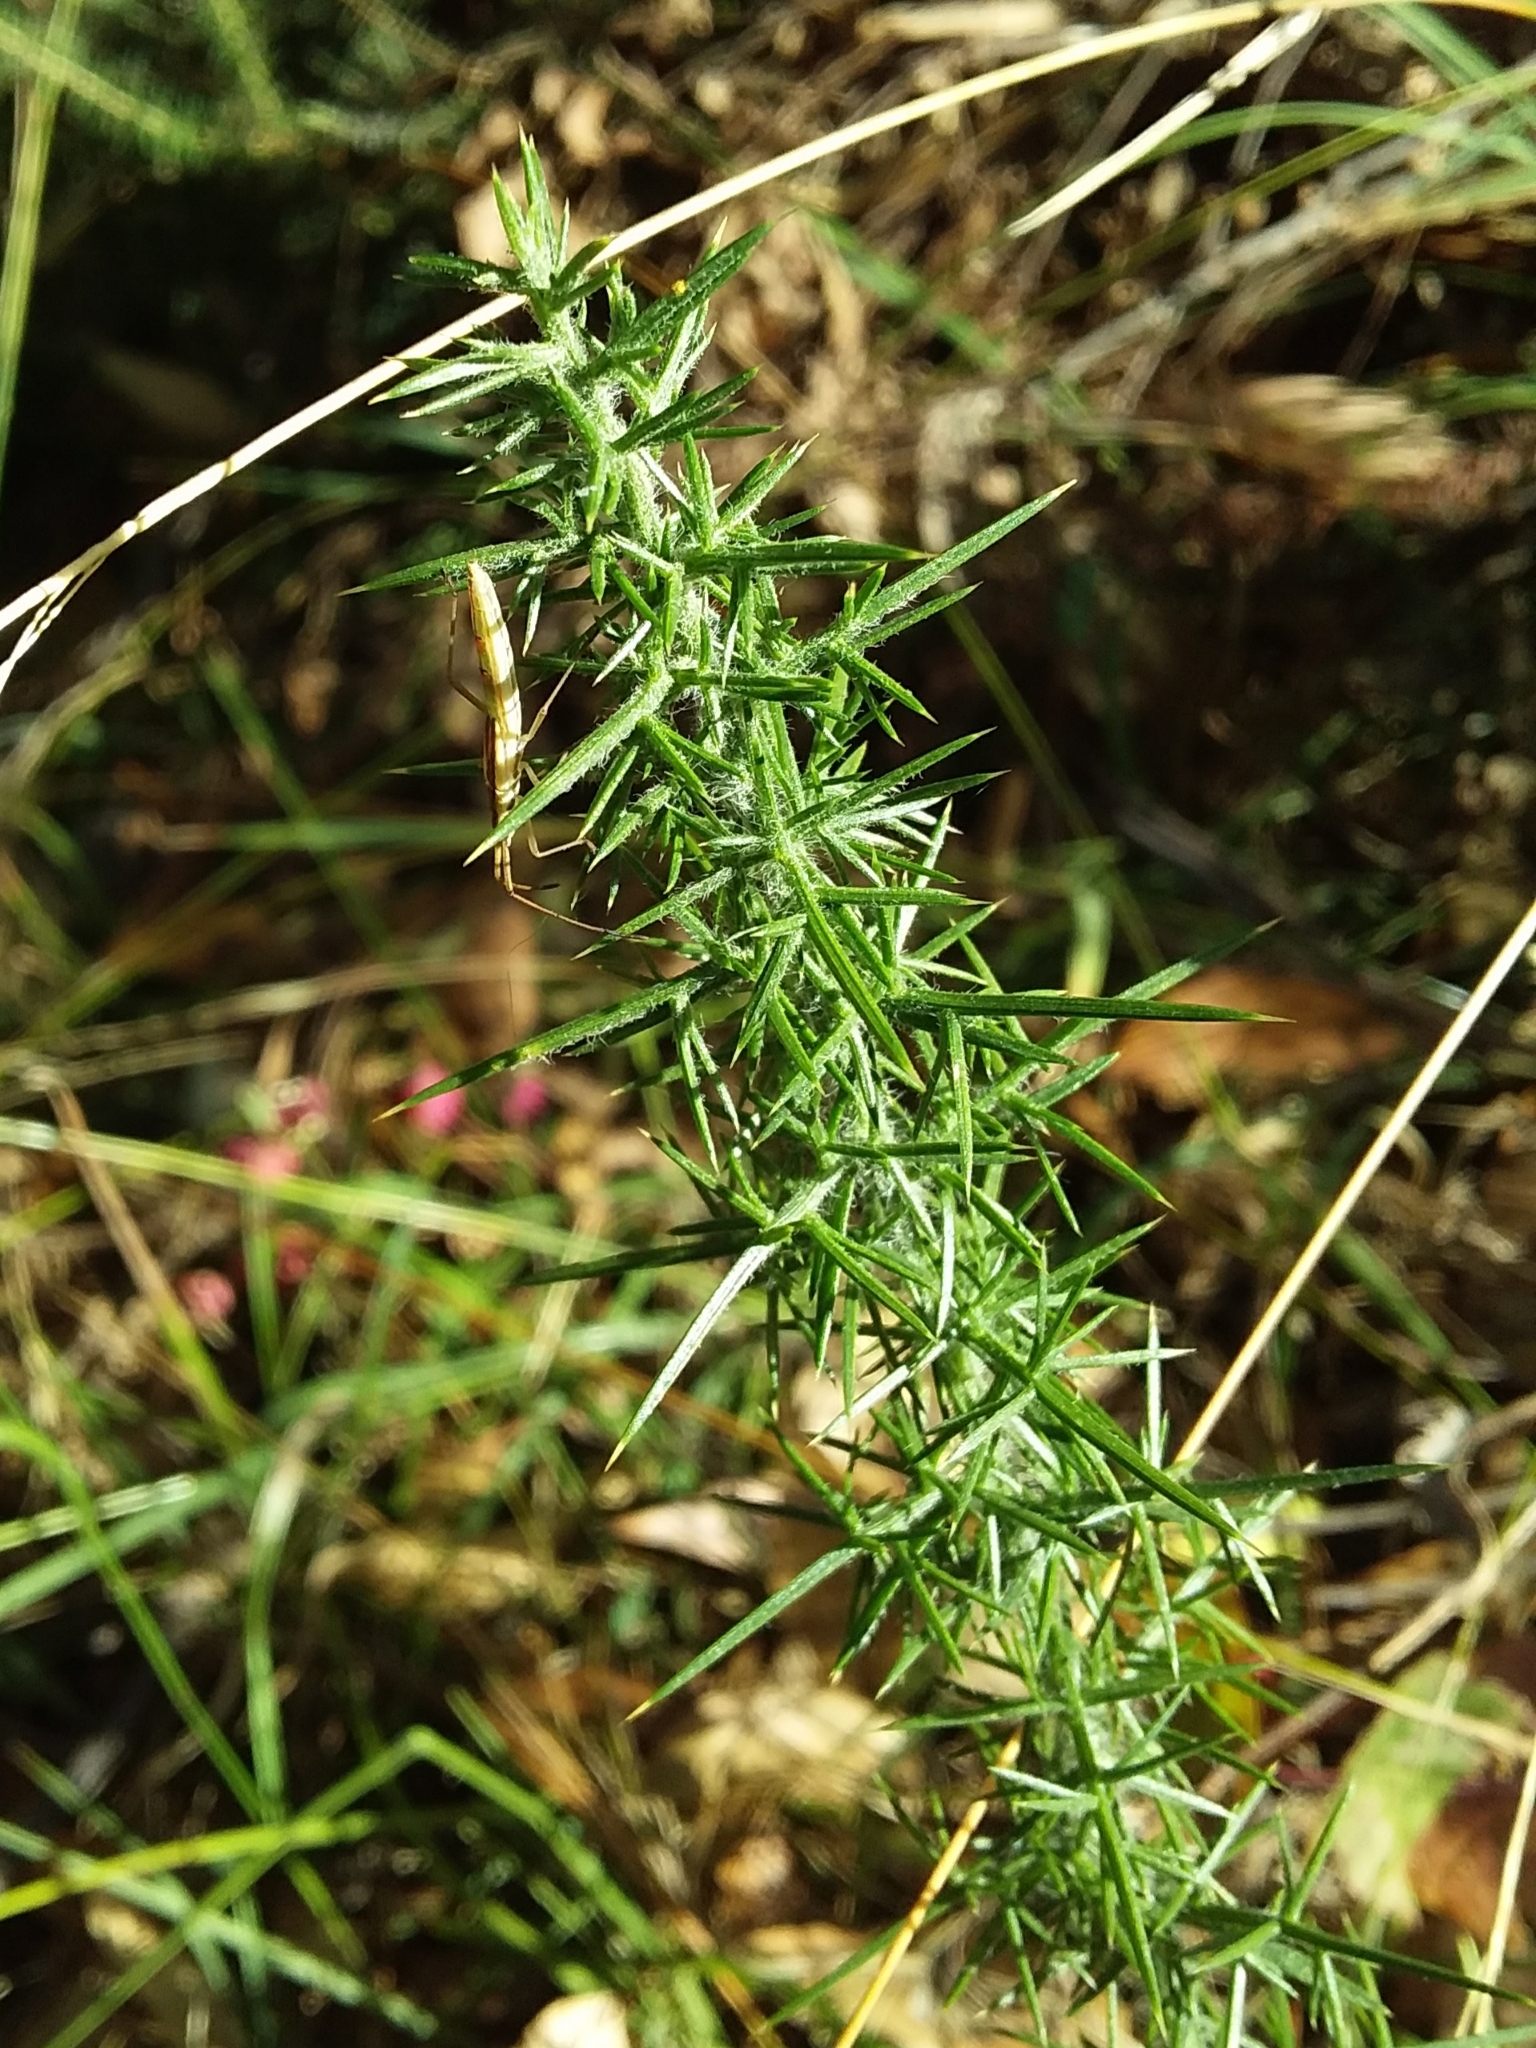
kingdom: Plantae
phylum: Tracheophyta
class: Magnoliopsida
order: Fabales
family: Fabaceae
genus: Ulex
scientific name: Ulex europaeus
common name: Common gorse
